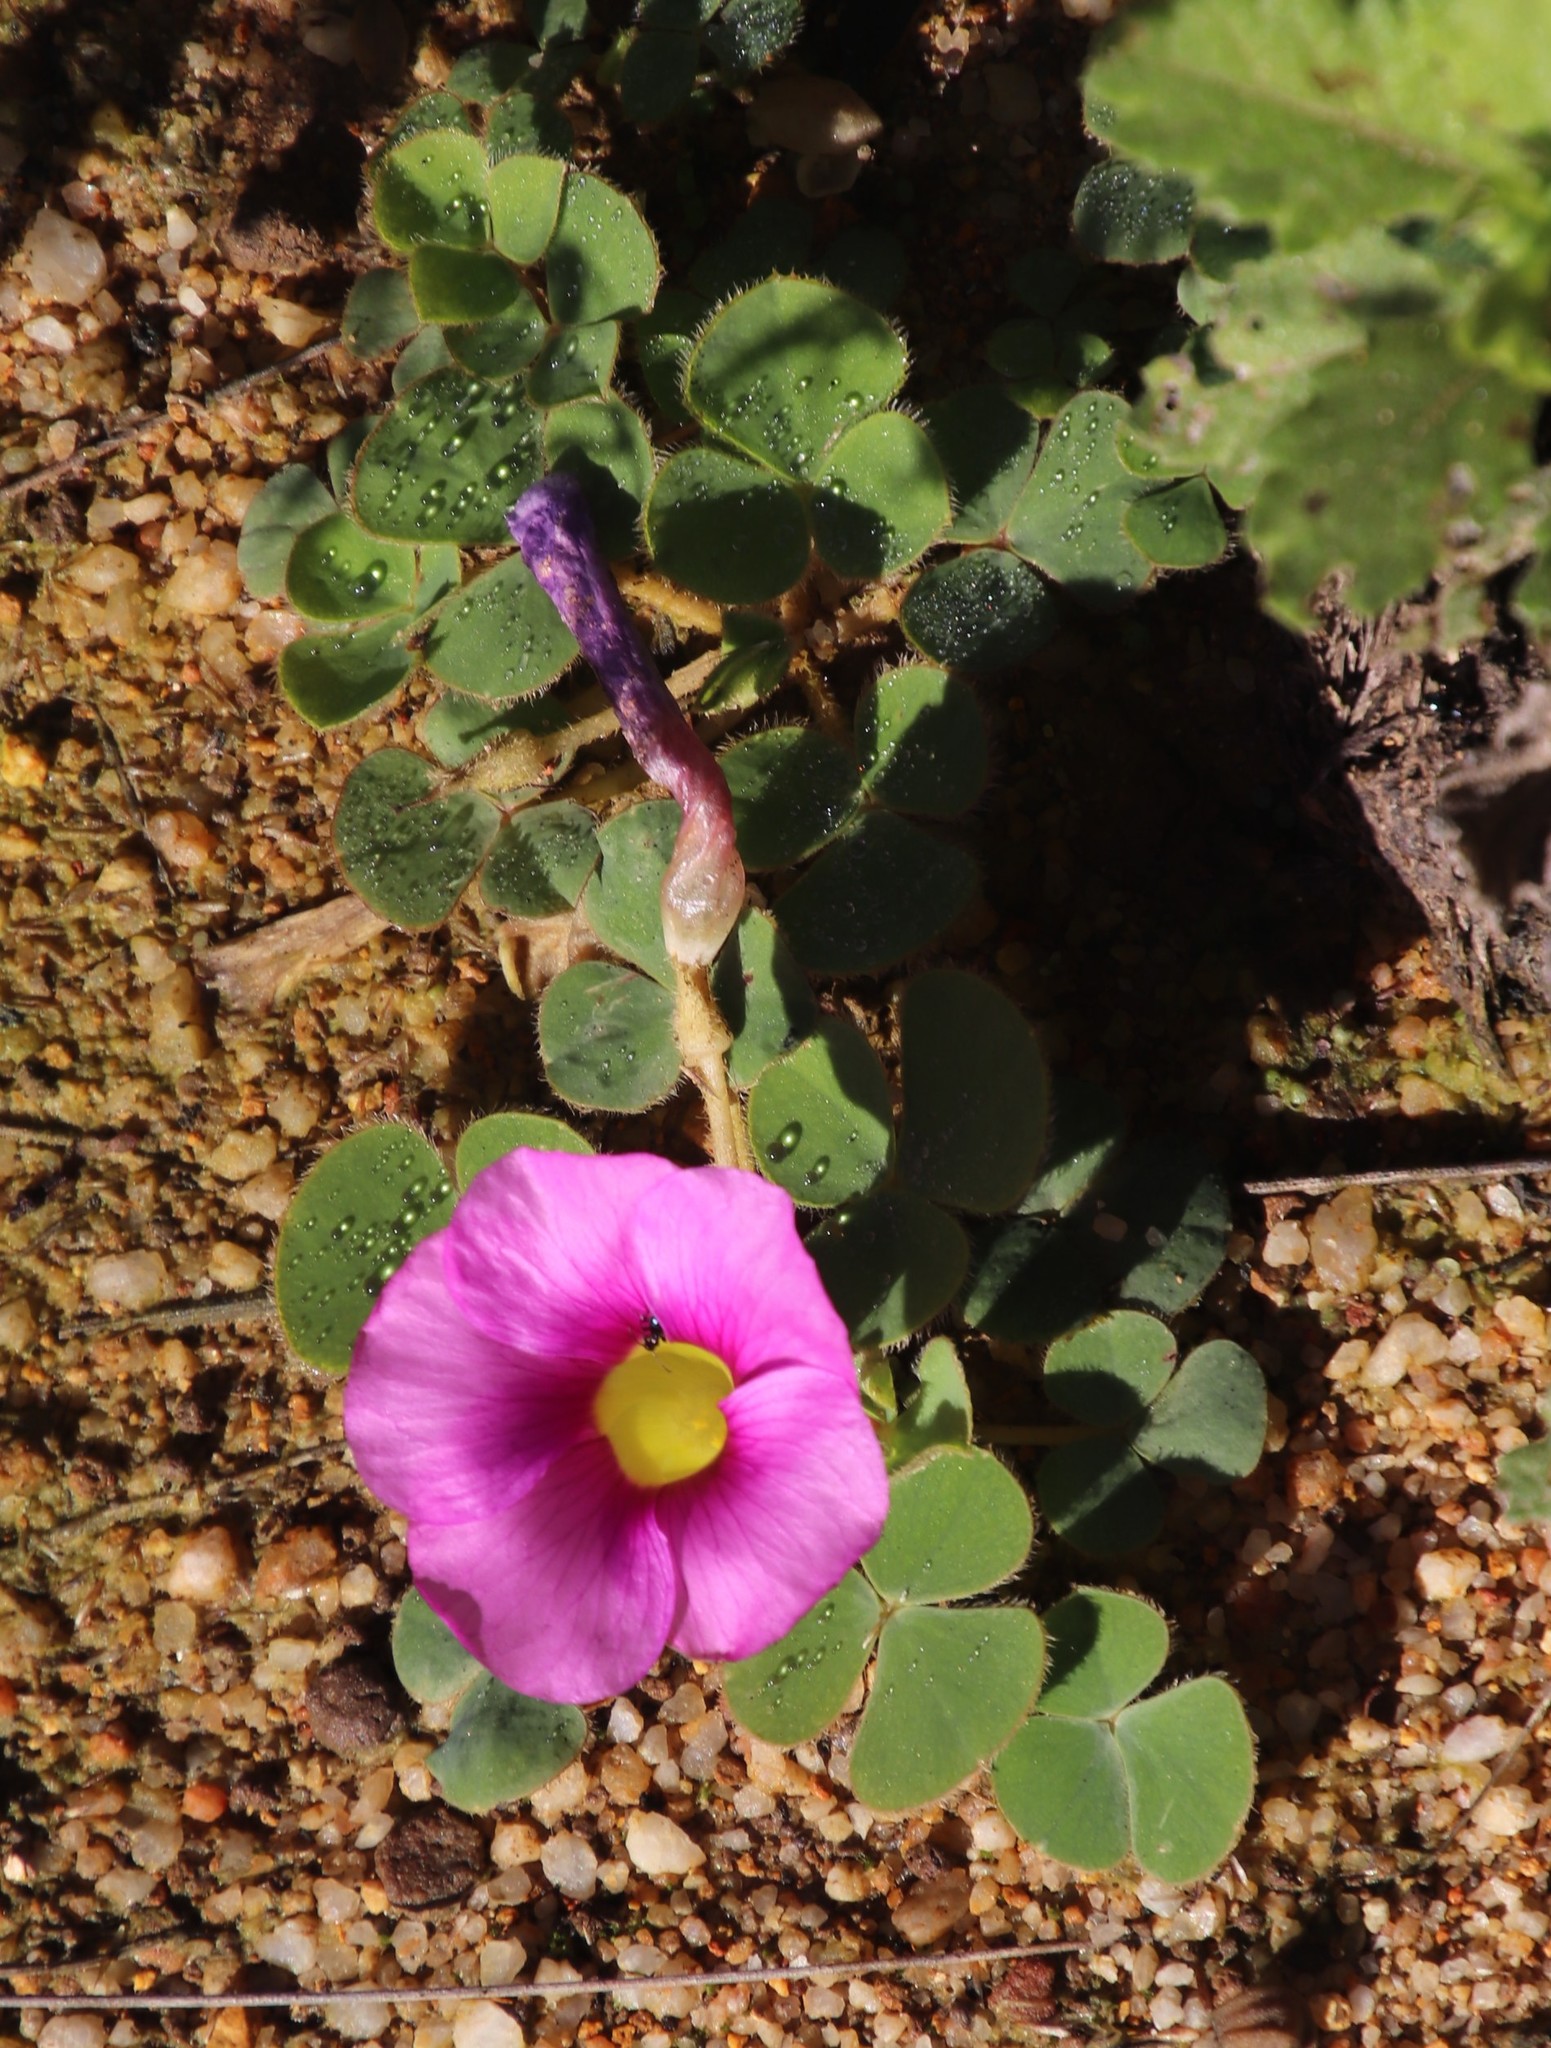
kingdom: Plantae
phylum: Tracheophyta
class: Magnoliopsida
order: Oxalidales
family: Oxalidaceae
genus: Oxalis
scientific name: Oxalis purpurea
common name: Purple woodsorrel
